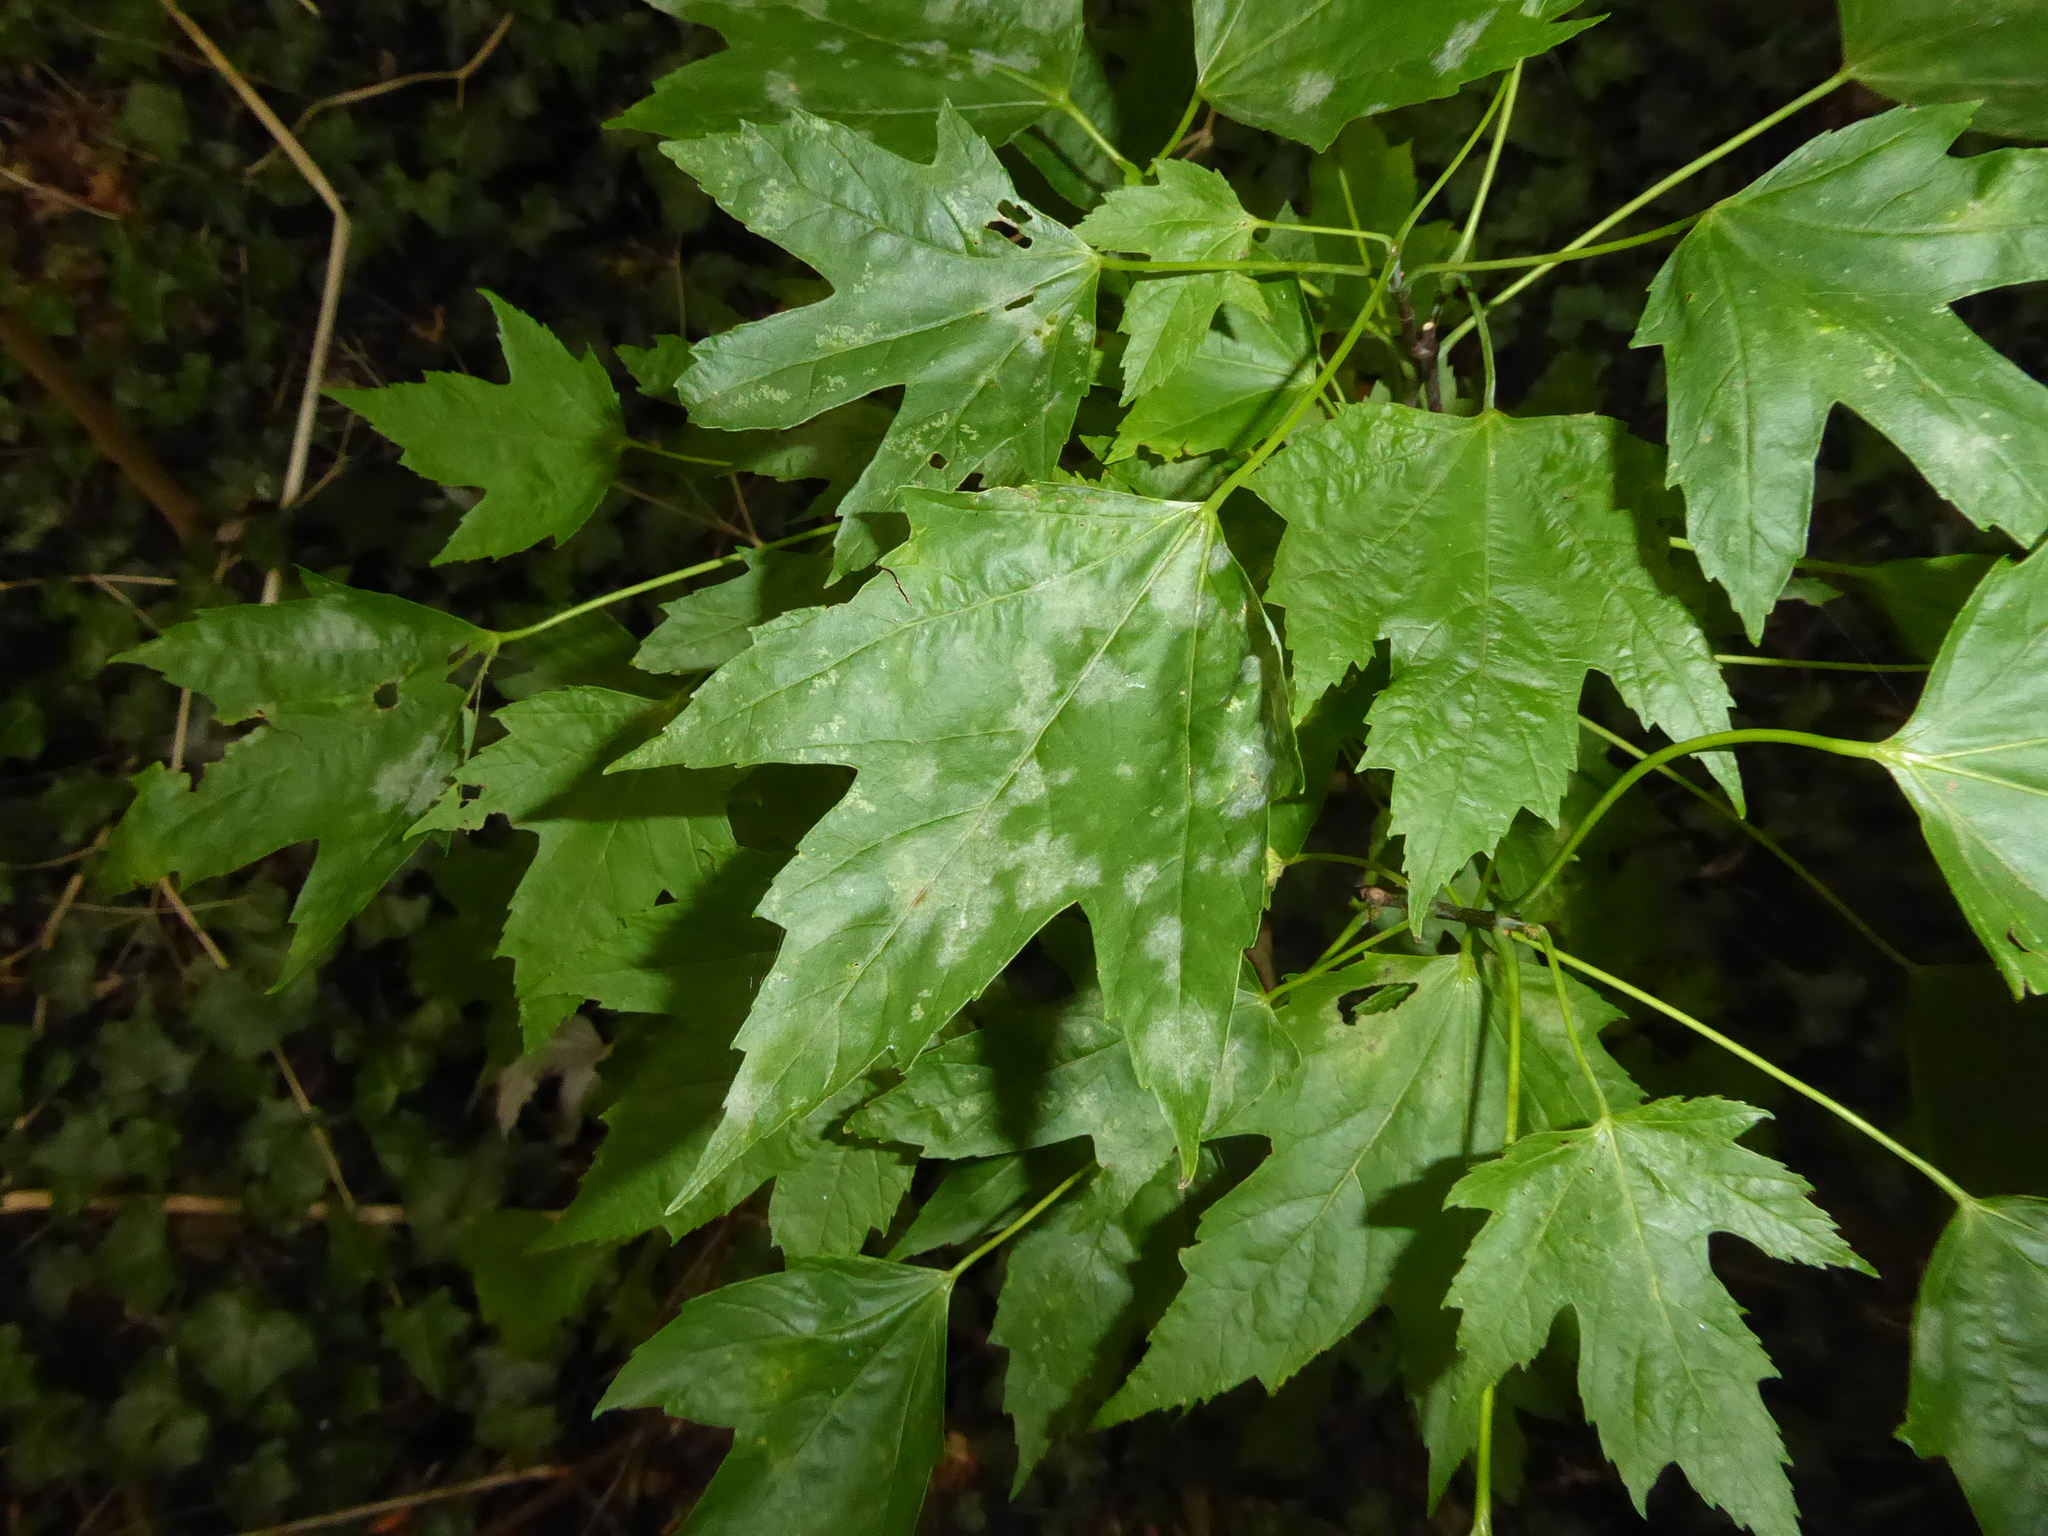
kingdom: Fungi
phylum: Ascomycota
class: Leotiomycetes
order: Helotiales
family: Erysiphaceae
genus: Sawadaea
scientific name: Sawadaea bicornis
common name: Maple mildew
